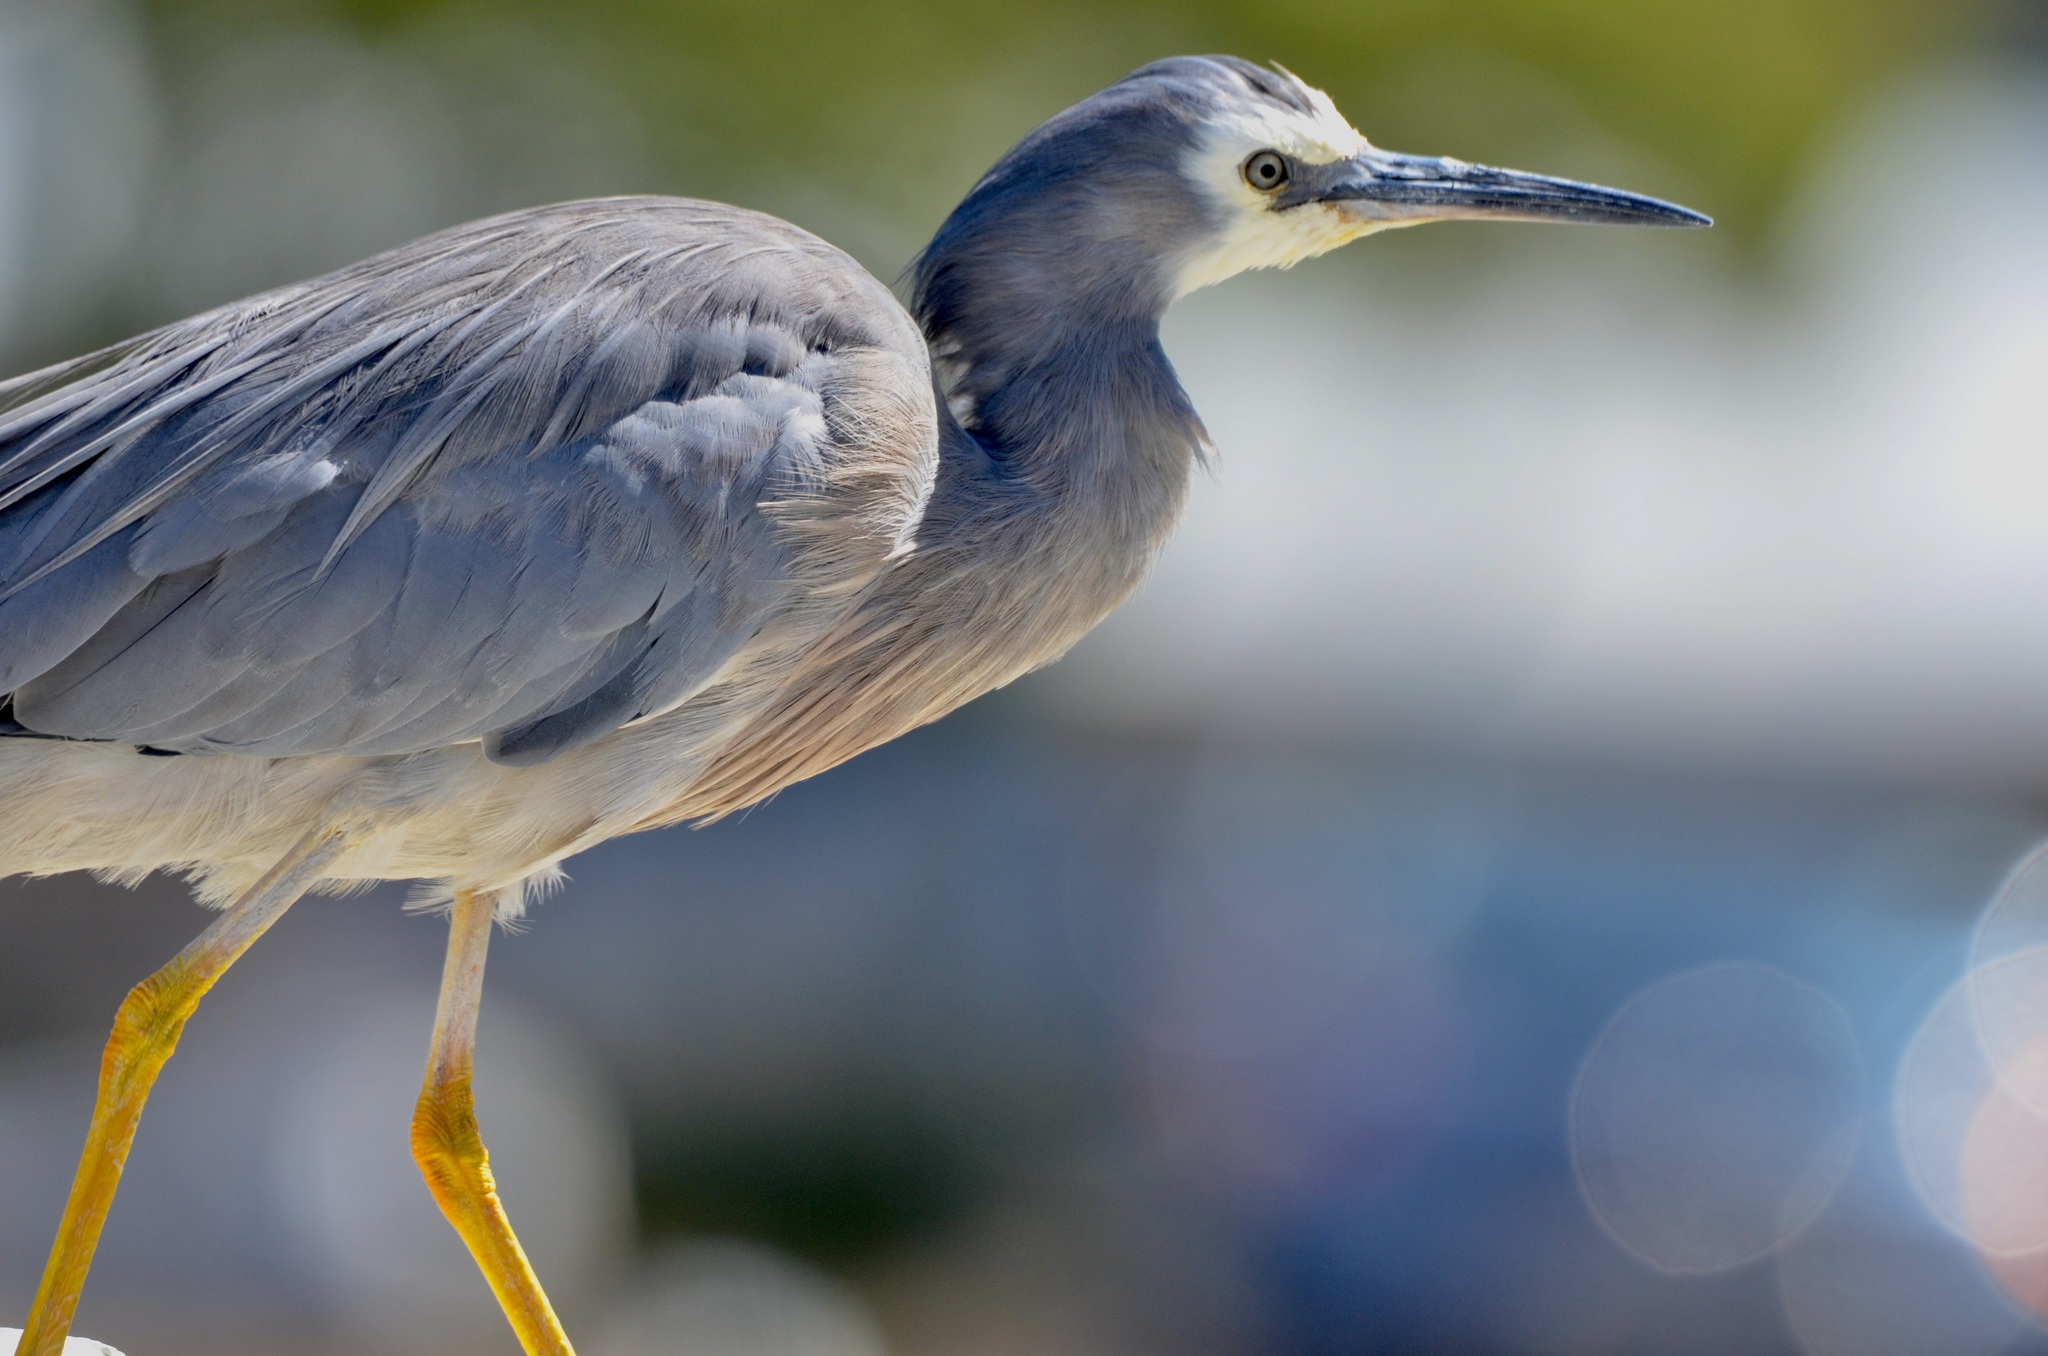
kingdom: Animalia
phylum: Chordata
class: Aves
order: Pelecaniformes
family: Ardeidae
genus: Egretta
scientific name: Egretta novaehollandiae
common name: White-faced heron
